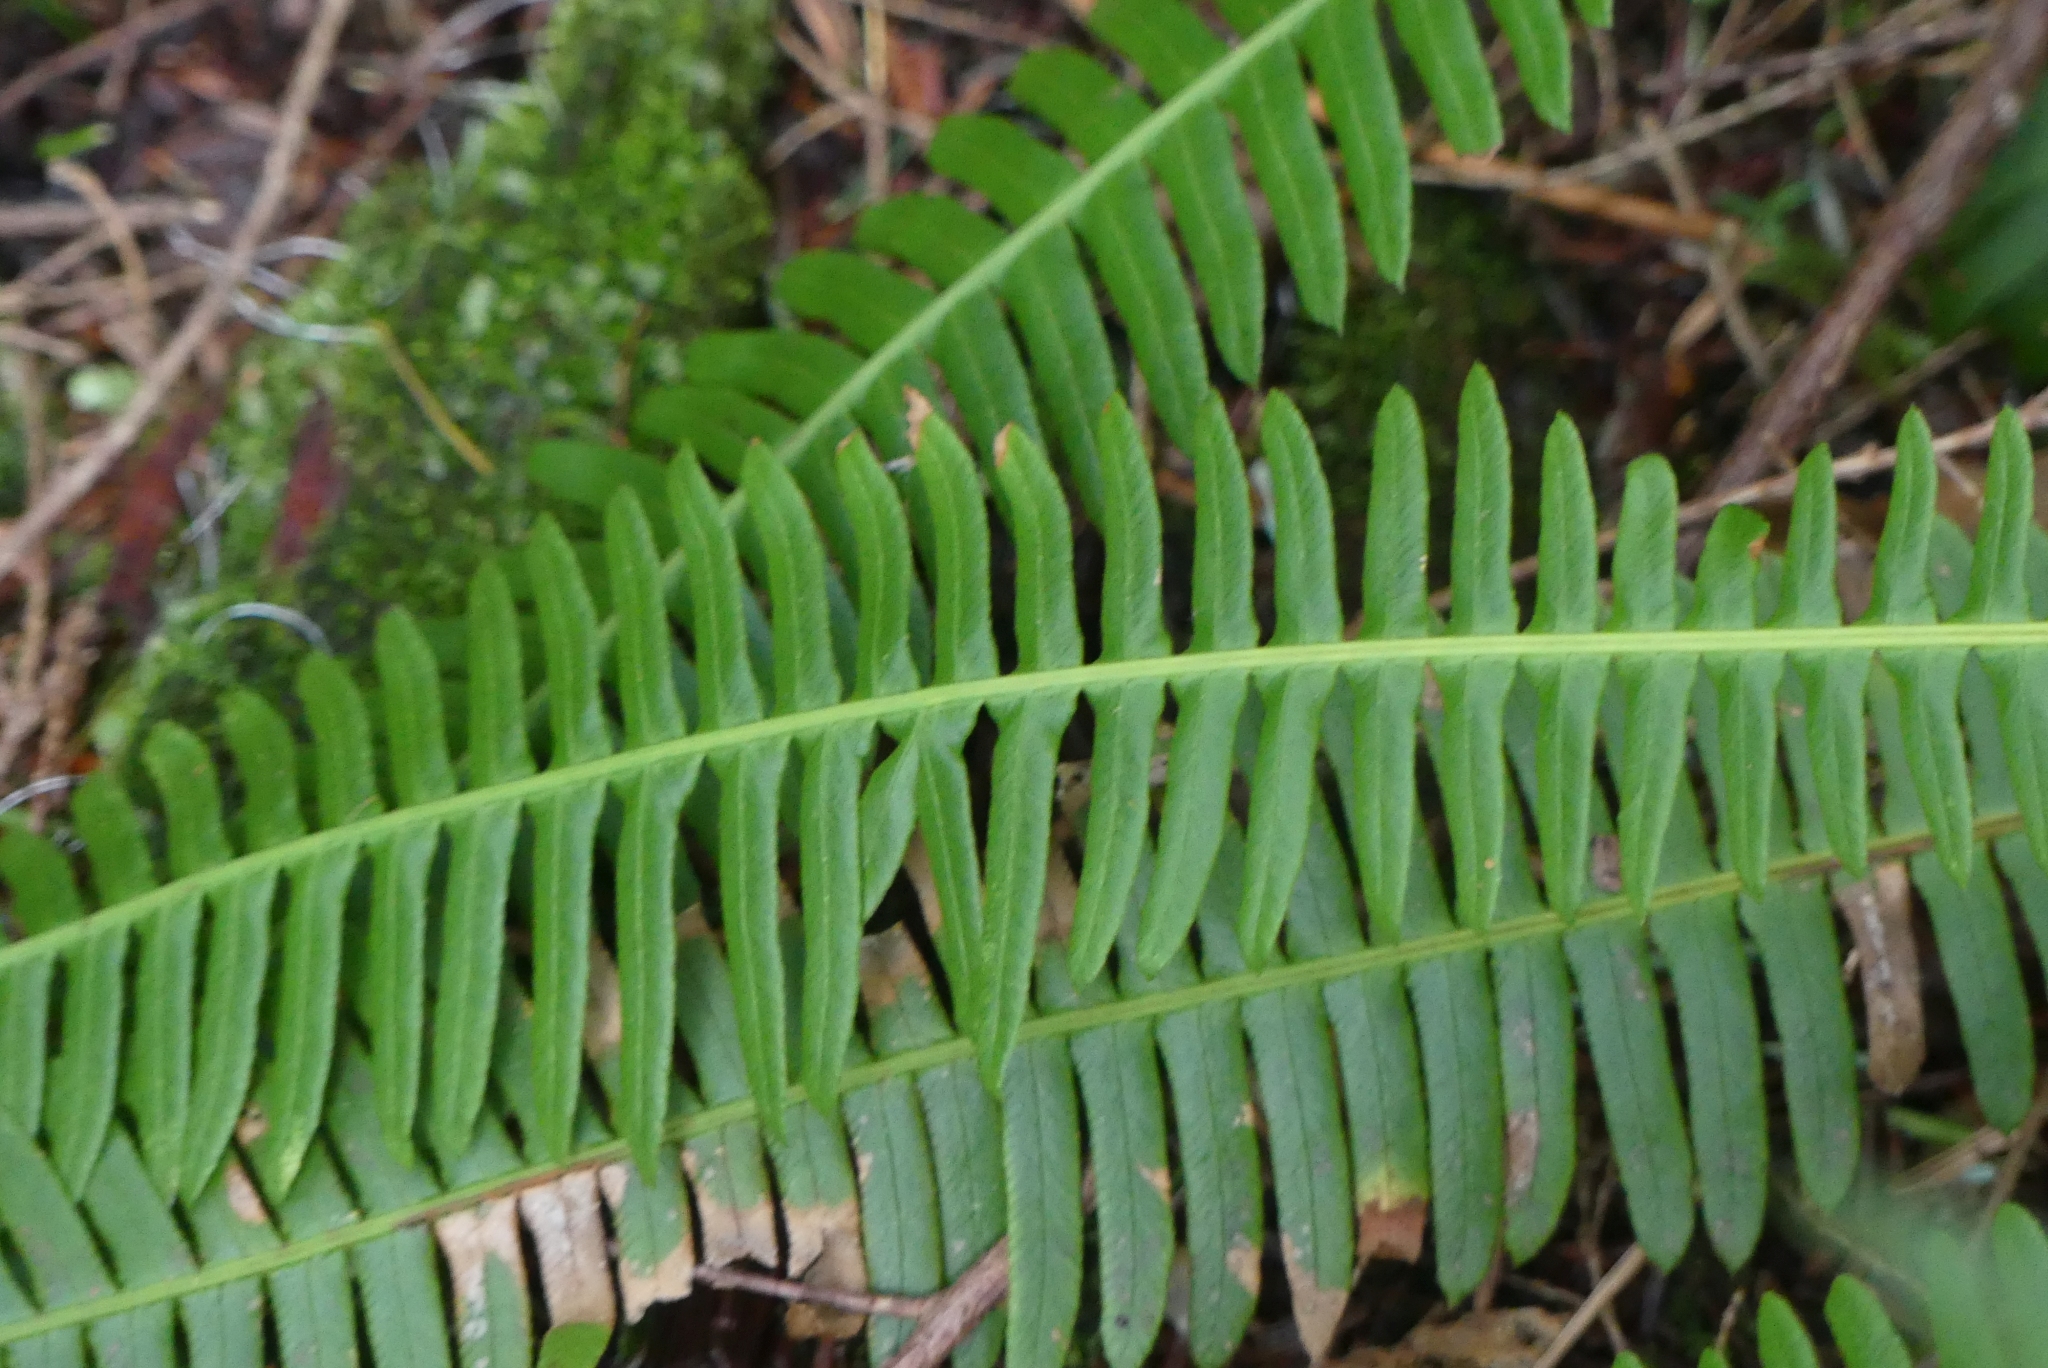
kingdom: Plantae
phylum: Tracheophyta
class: Polypodiopsida
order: Polypodiales
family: Blechnaceae
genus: Struthiopteris
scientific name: Struthiopteris spicant
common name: Deer fern
